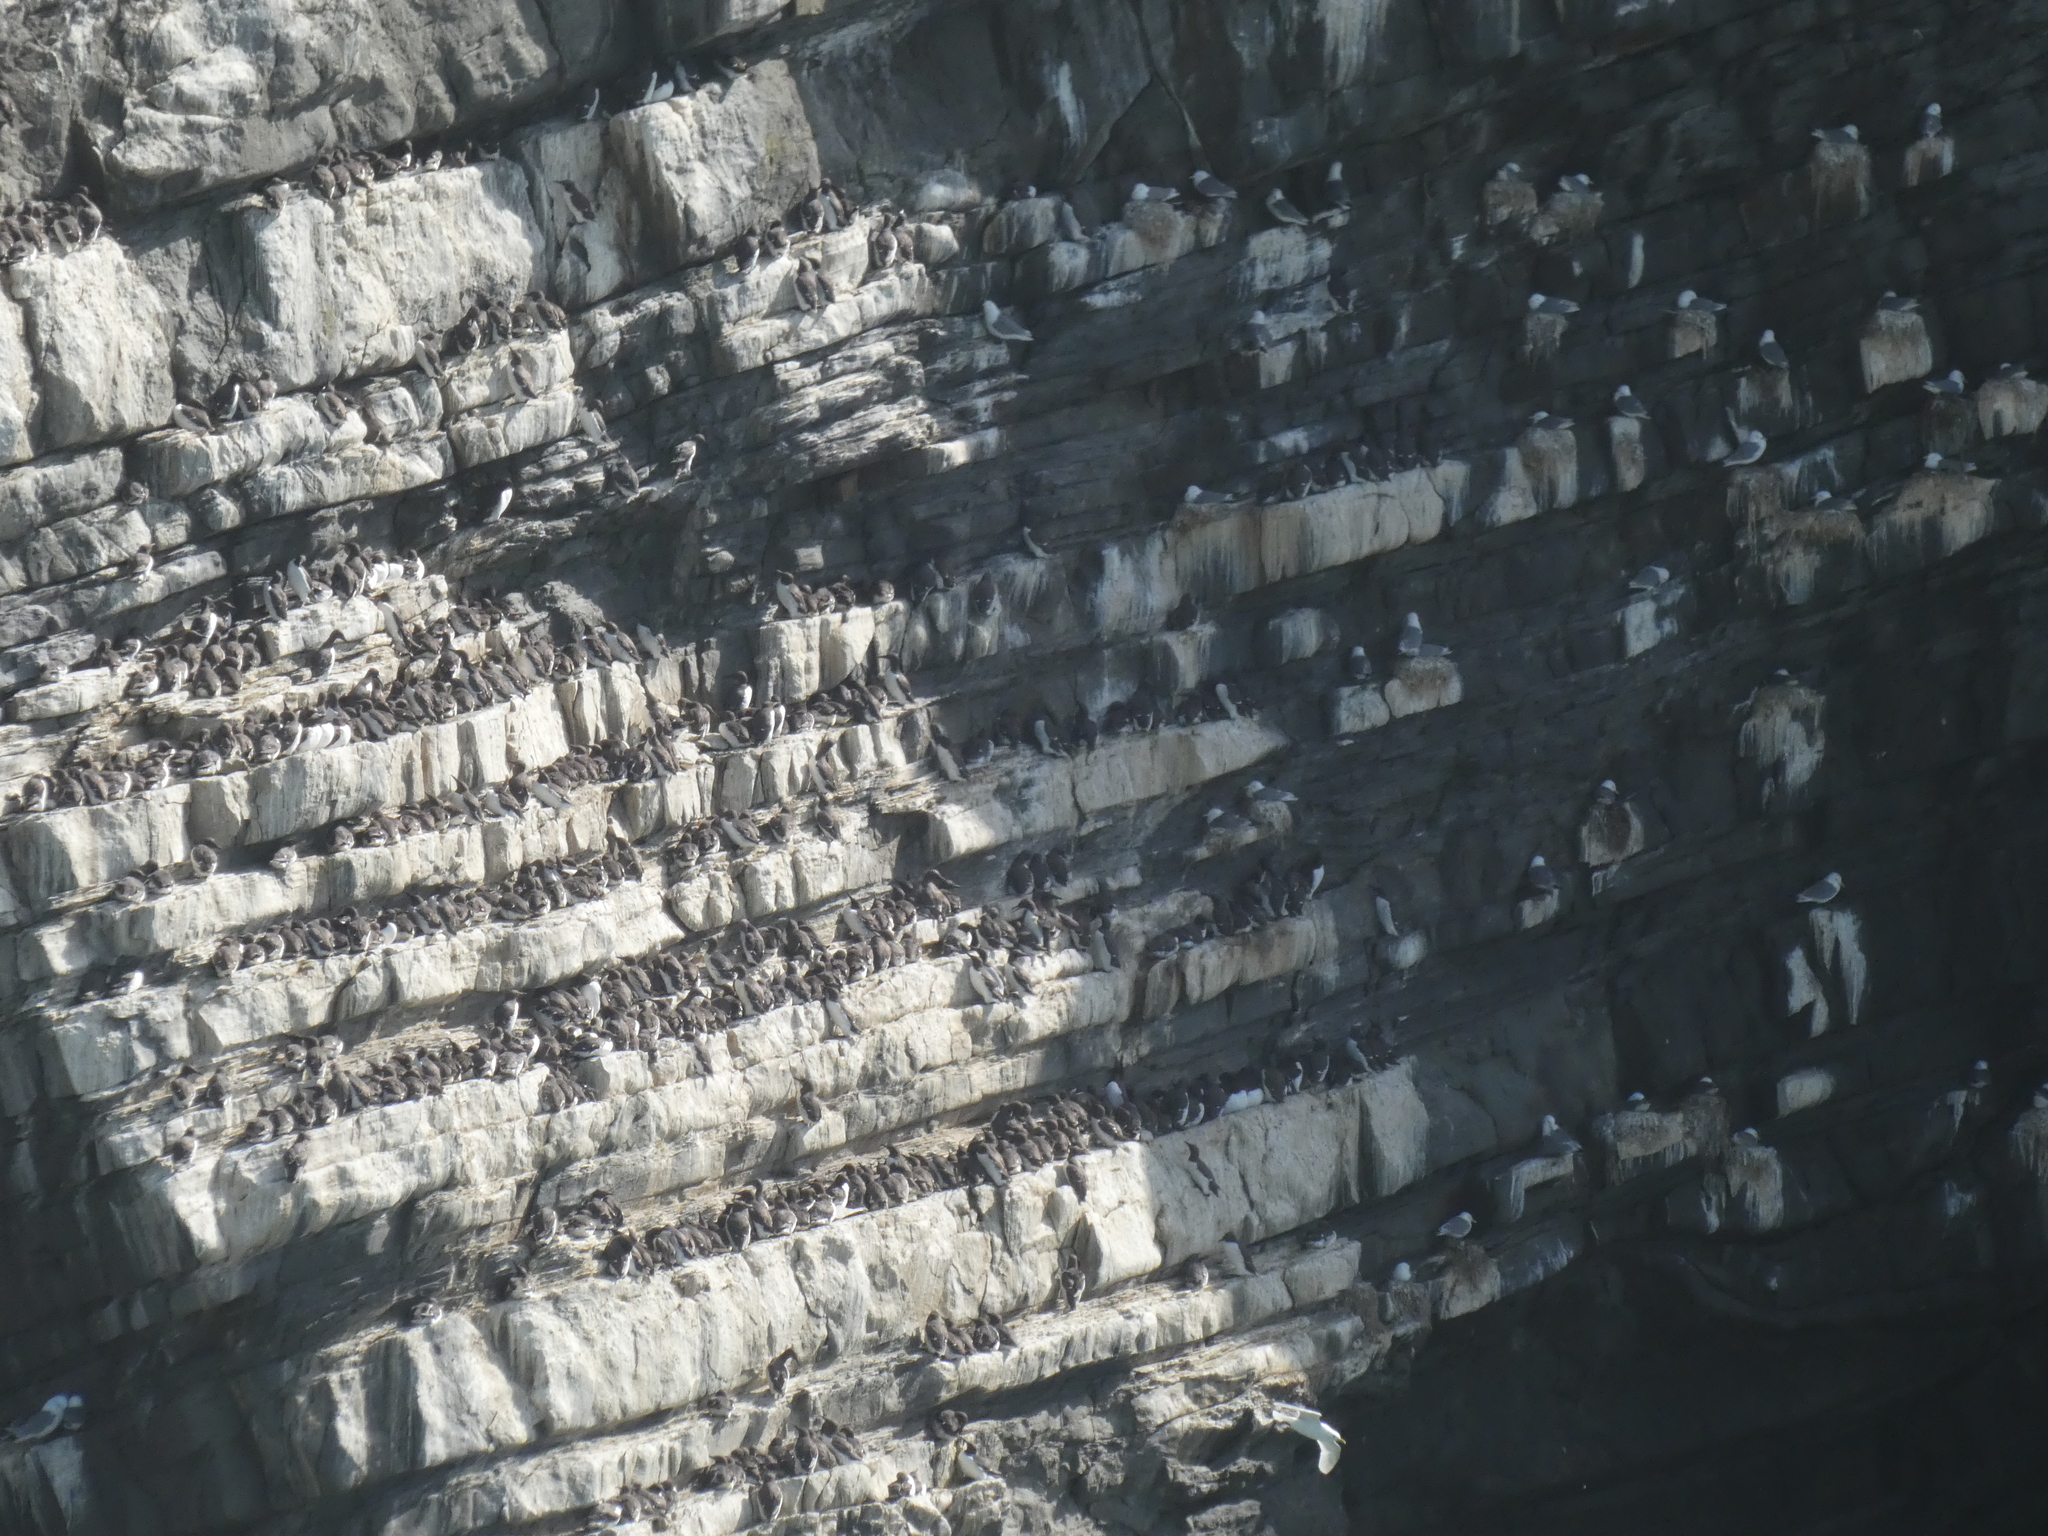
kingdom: Animalia
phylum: Chordata
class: Aves
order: Charadriiformes
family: Alcidae
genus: Uria
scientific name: Uria aalge
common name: Common murre
